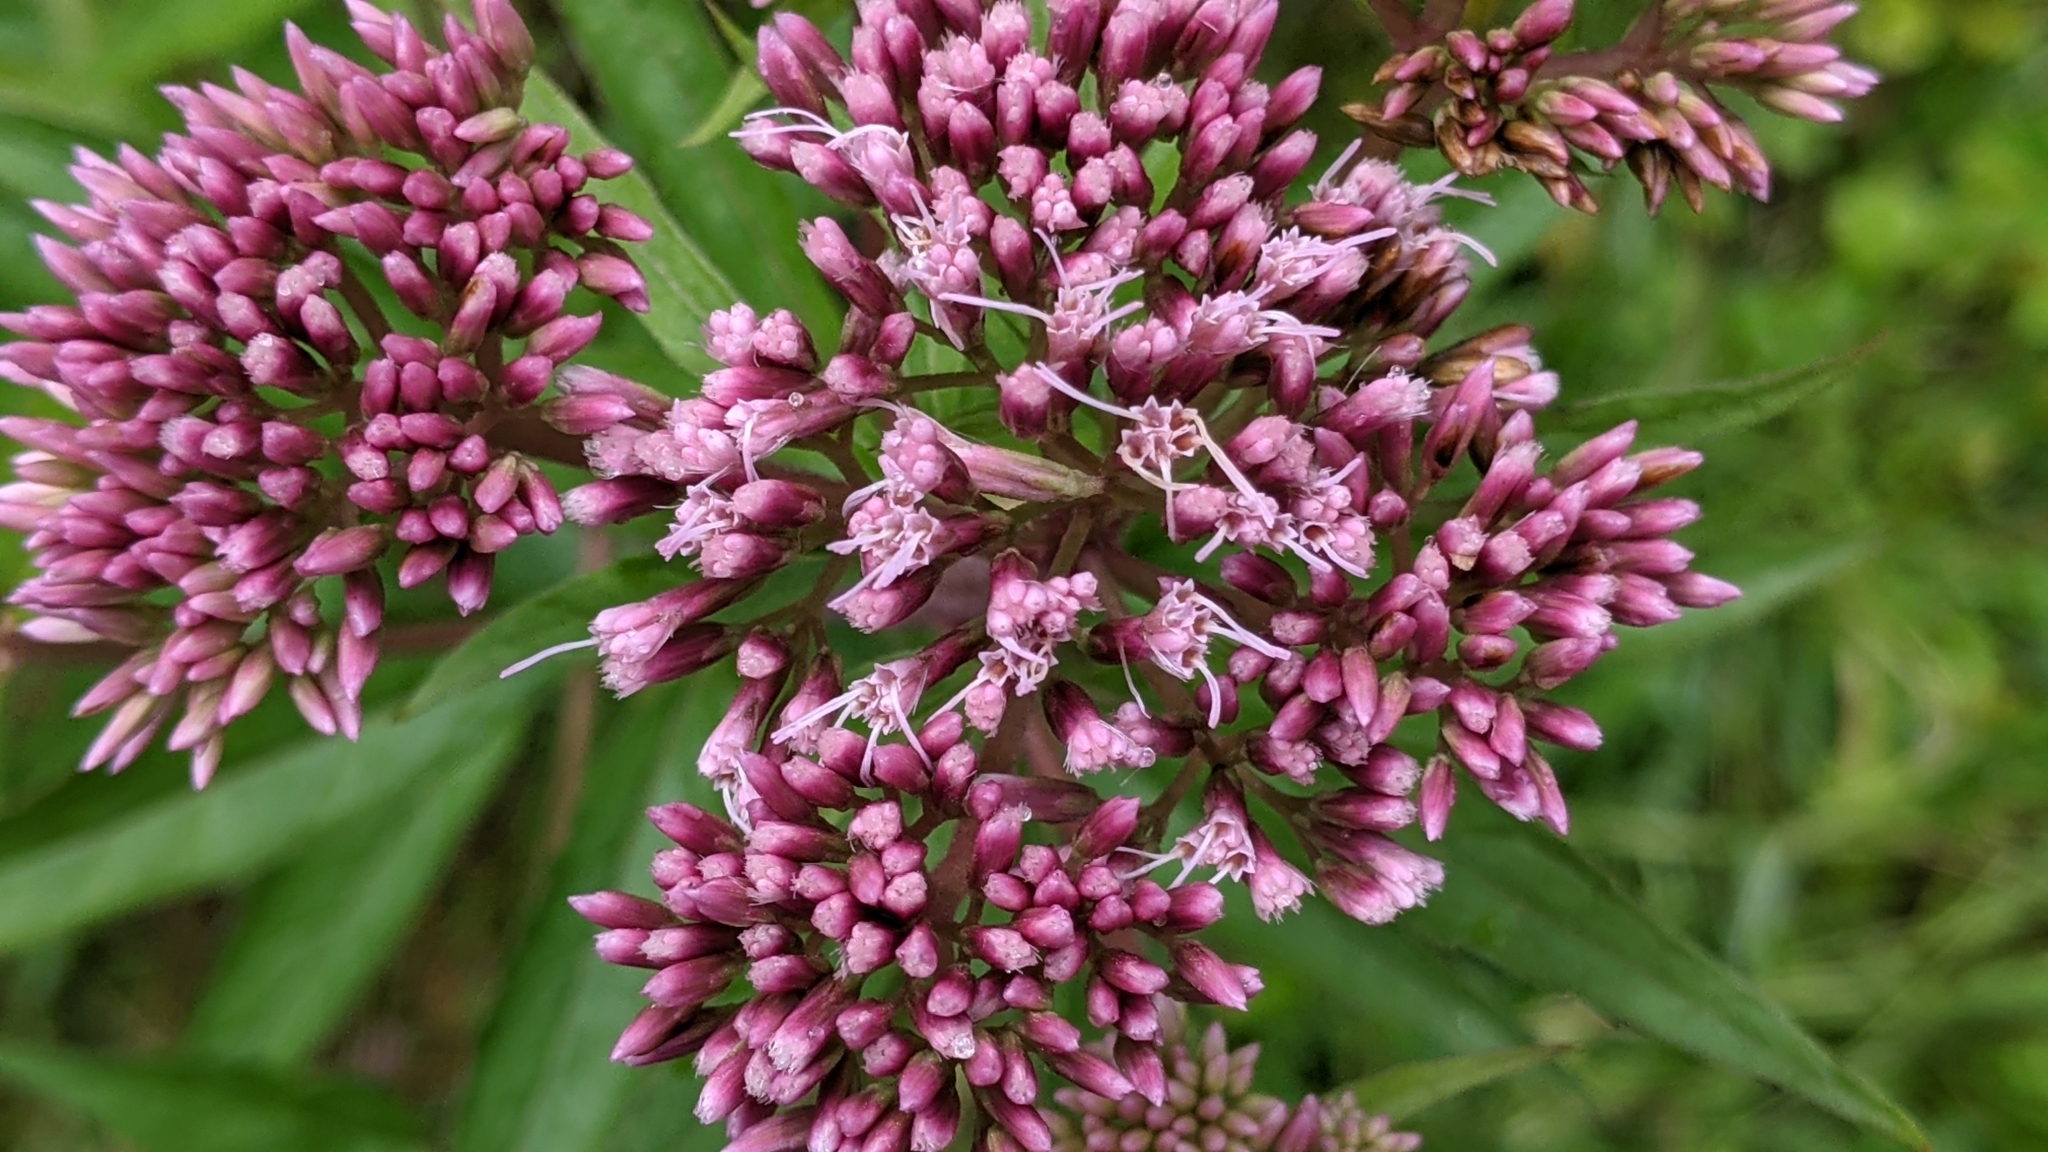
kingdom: Plantae
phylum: Tracheophyta
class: Magnoliopsida
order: Asterales
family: Asteraceae
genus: Eupatorium
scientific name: Eupatorium cannabinum
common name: Hemp-agrimony
